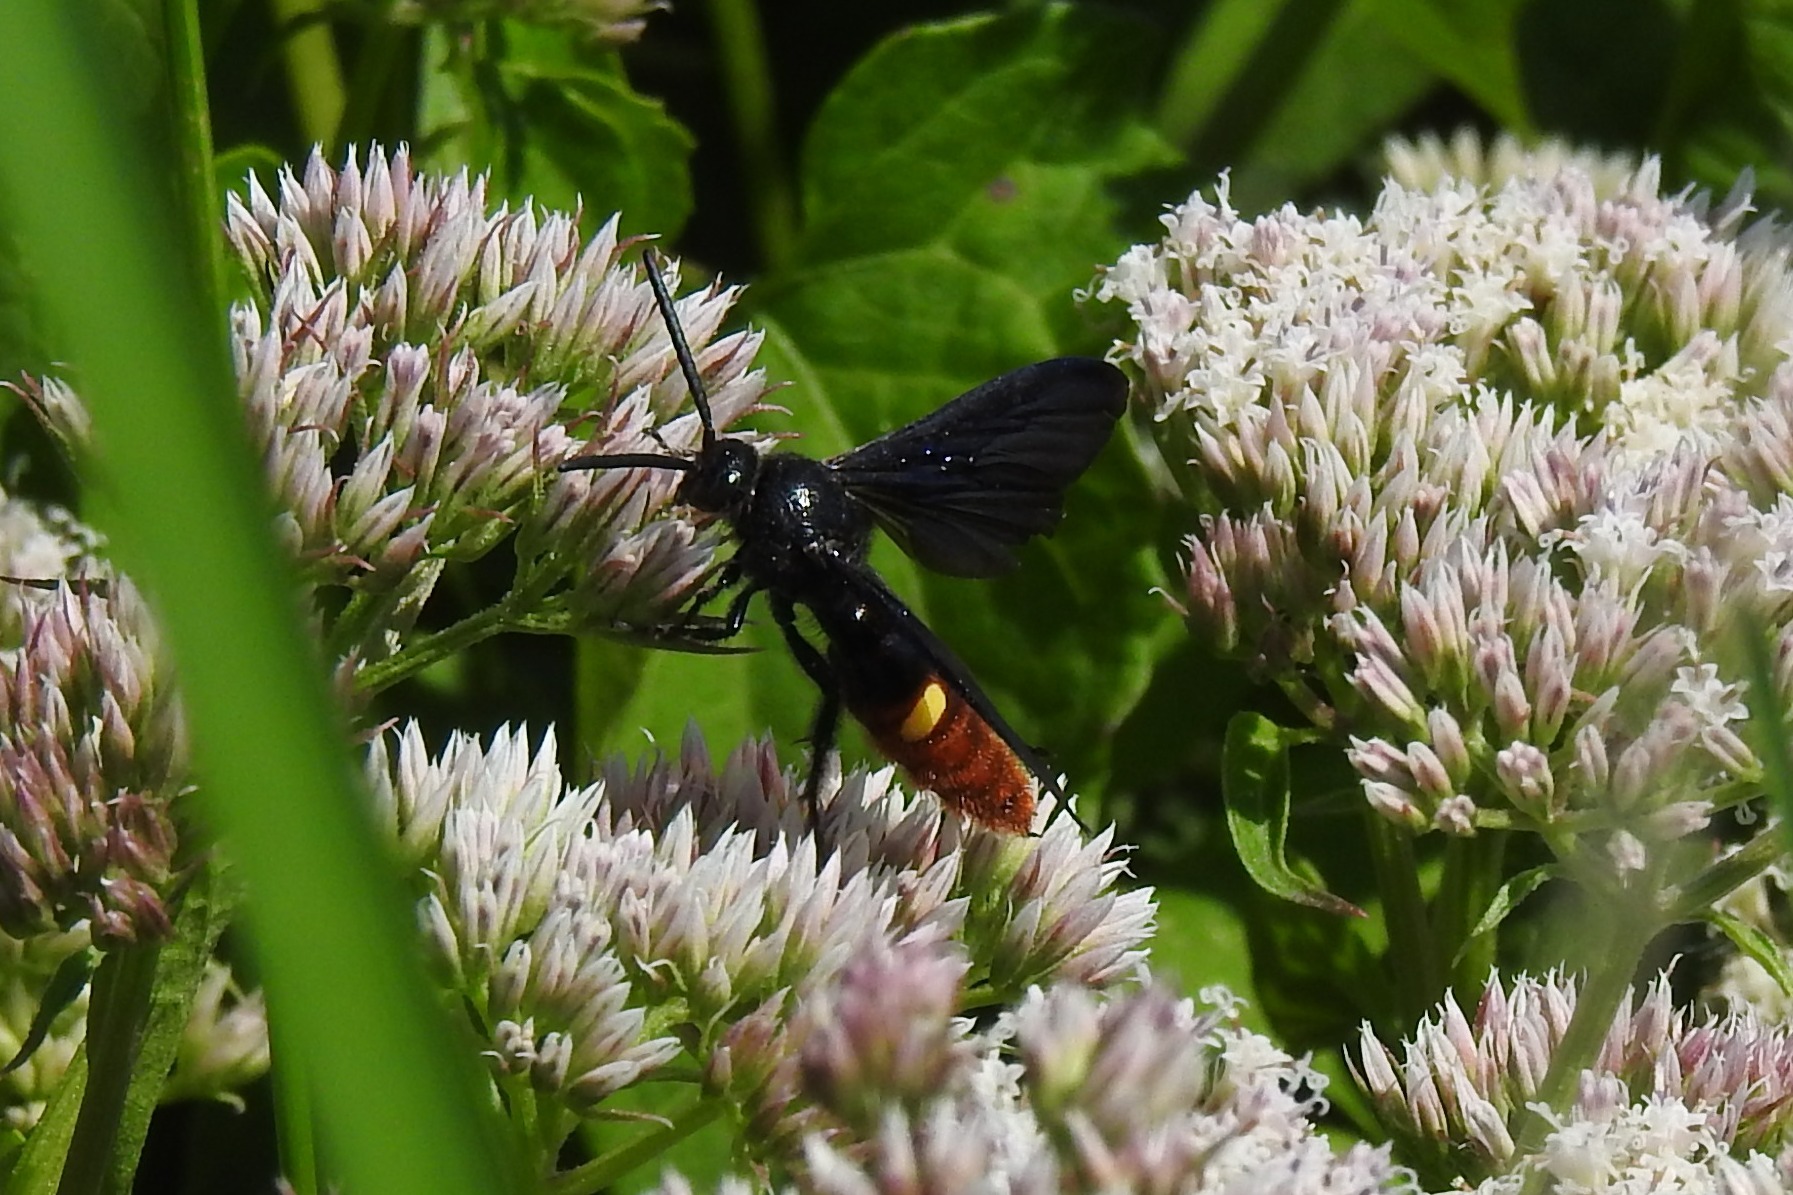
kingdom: Animalia
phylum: Arthropoda
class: Insecta
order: Hymenoptera
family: Scoliidae
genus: Scolia
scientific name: Scolia dubia
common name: Blue-winged scoliid wasp
